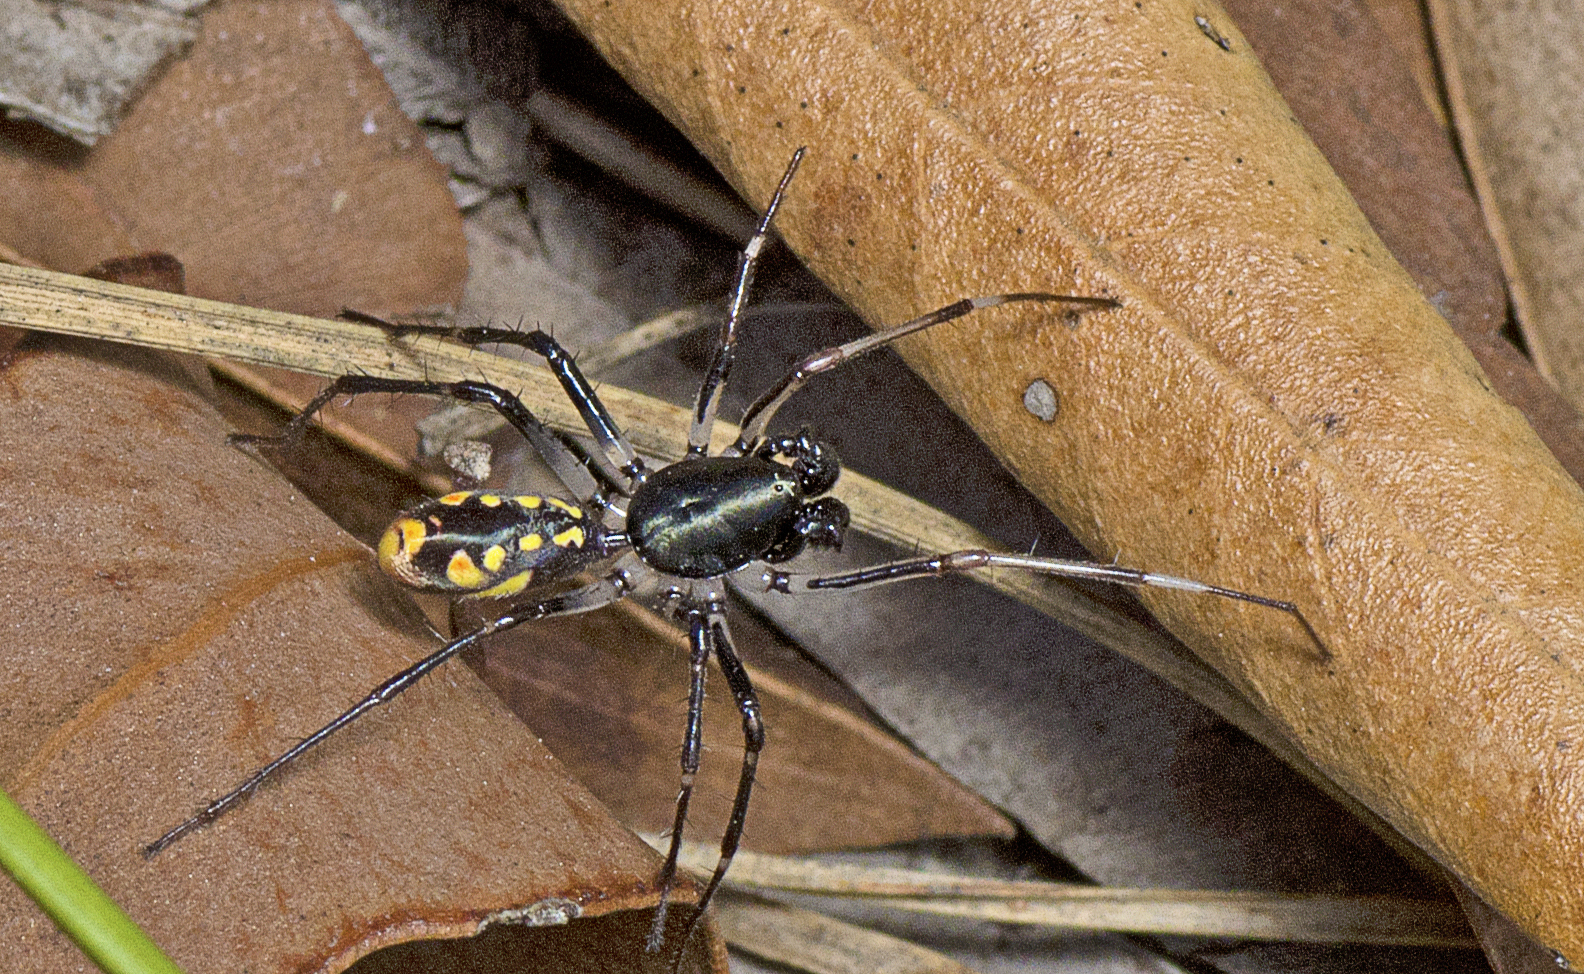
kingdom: Animalia
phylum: Arthropoda
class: Arachnida
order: Araneae
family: Zodariidae
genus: Subasteron
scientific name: Subasteron daviesae
